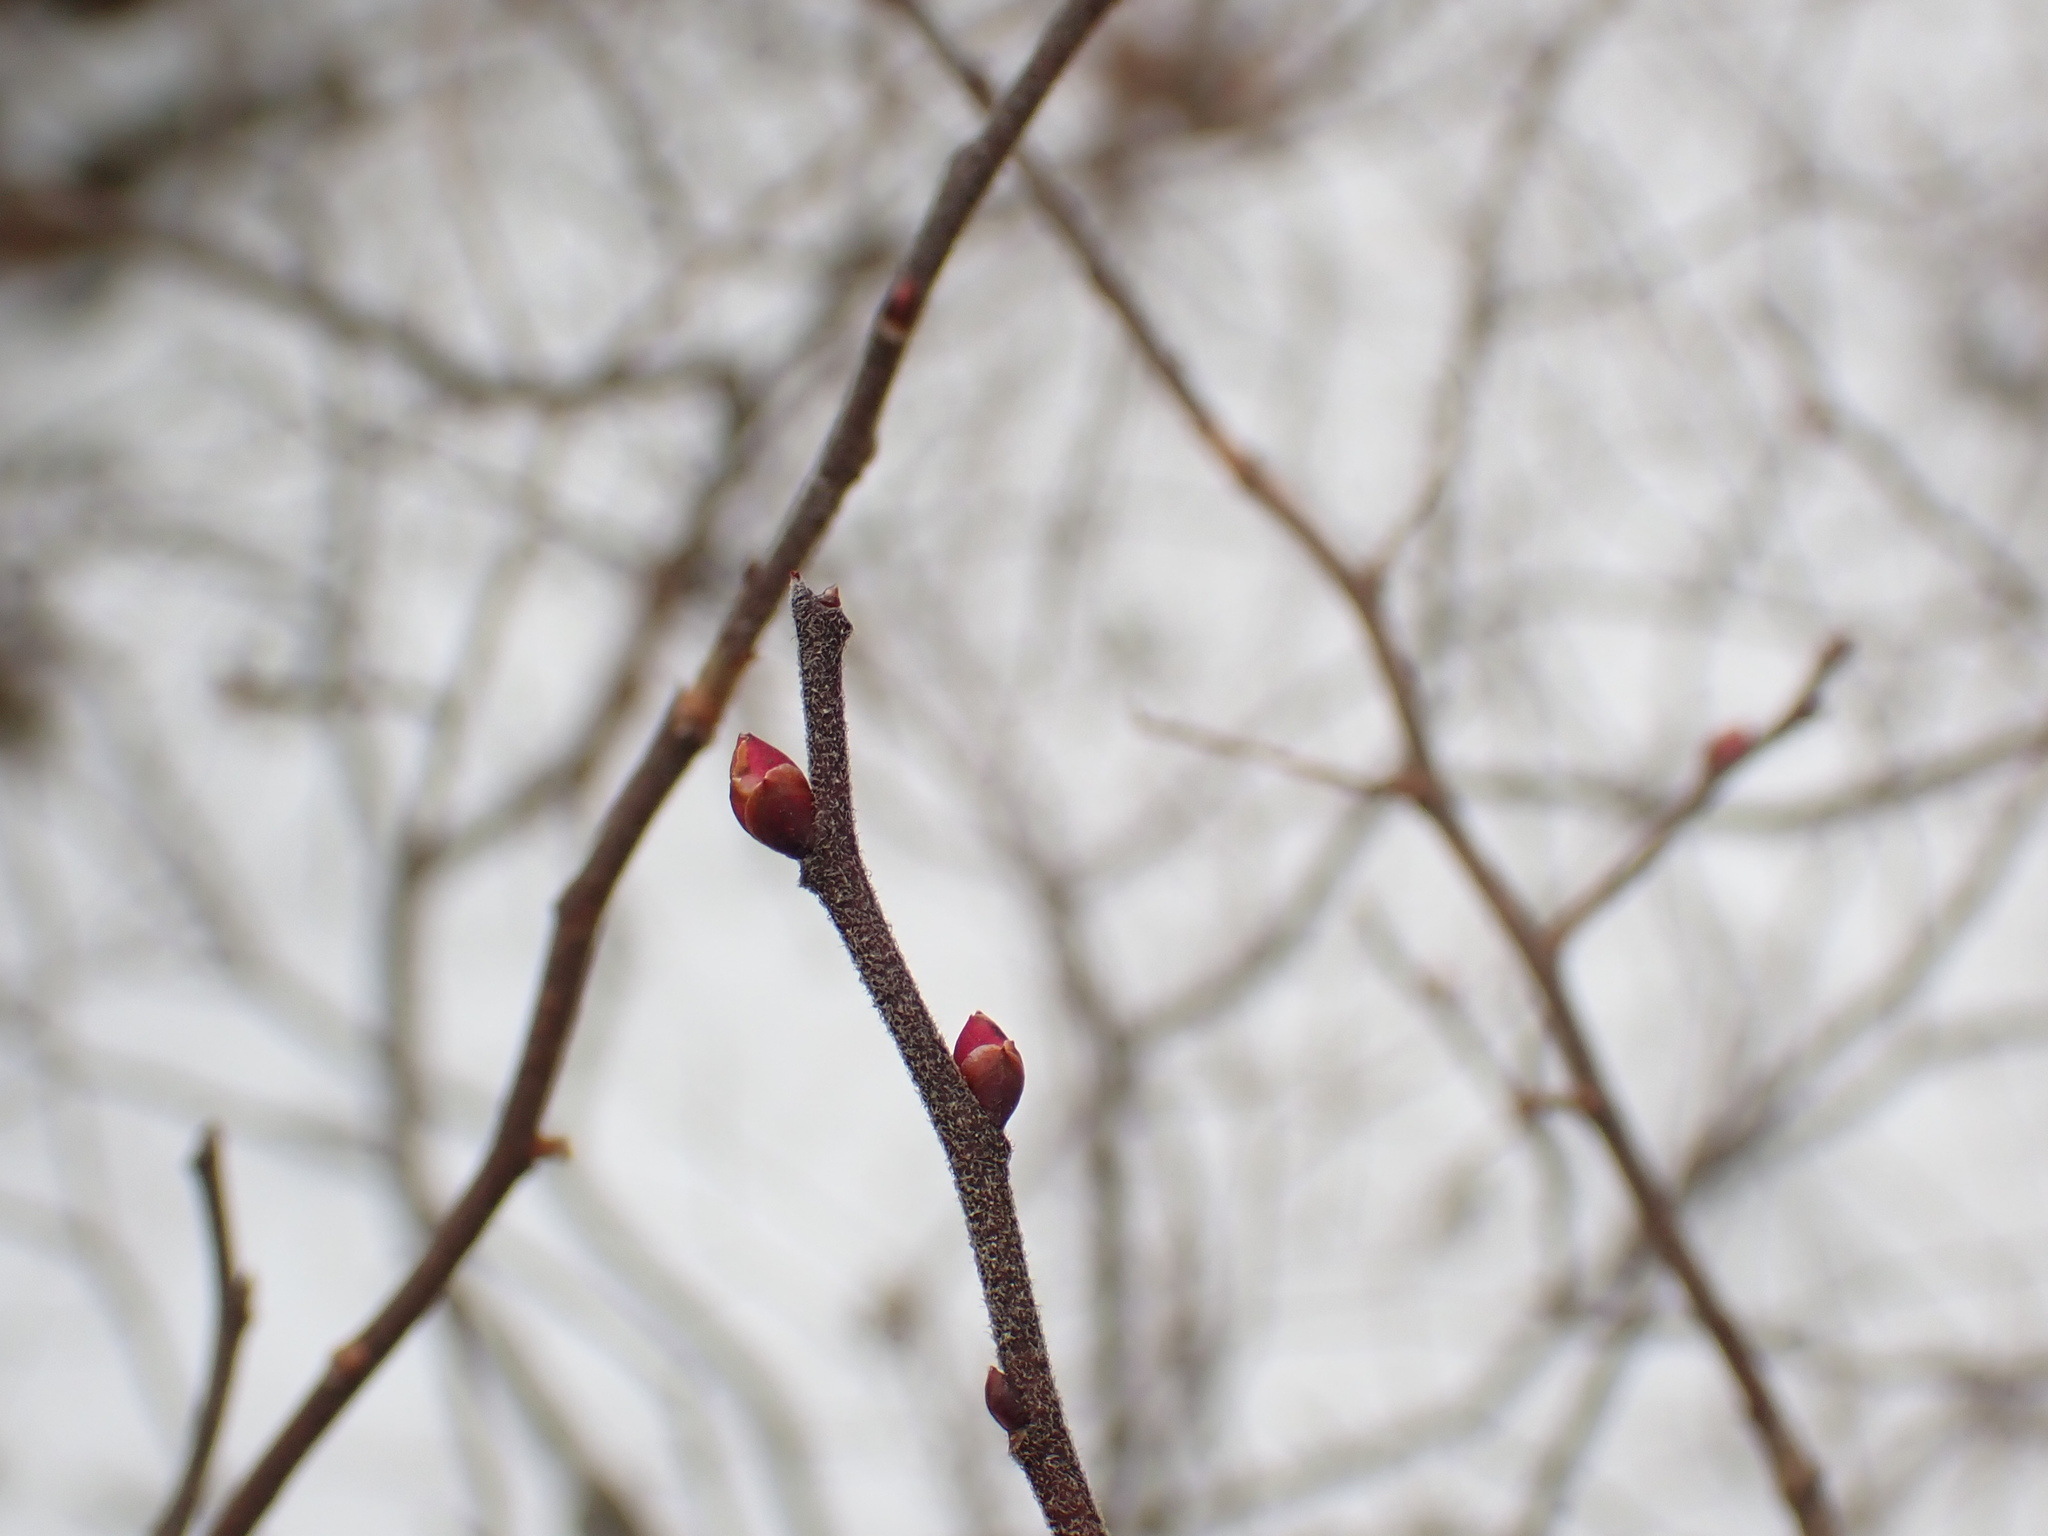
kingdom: Plantae
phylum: Tracheophyta
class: Magnoliopsida
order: Ericales
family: Ericaceae
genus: Gaylussacia
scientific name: Gaylussacia baccata
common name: Black huckleberry
